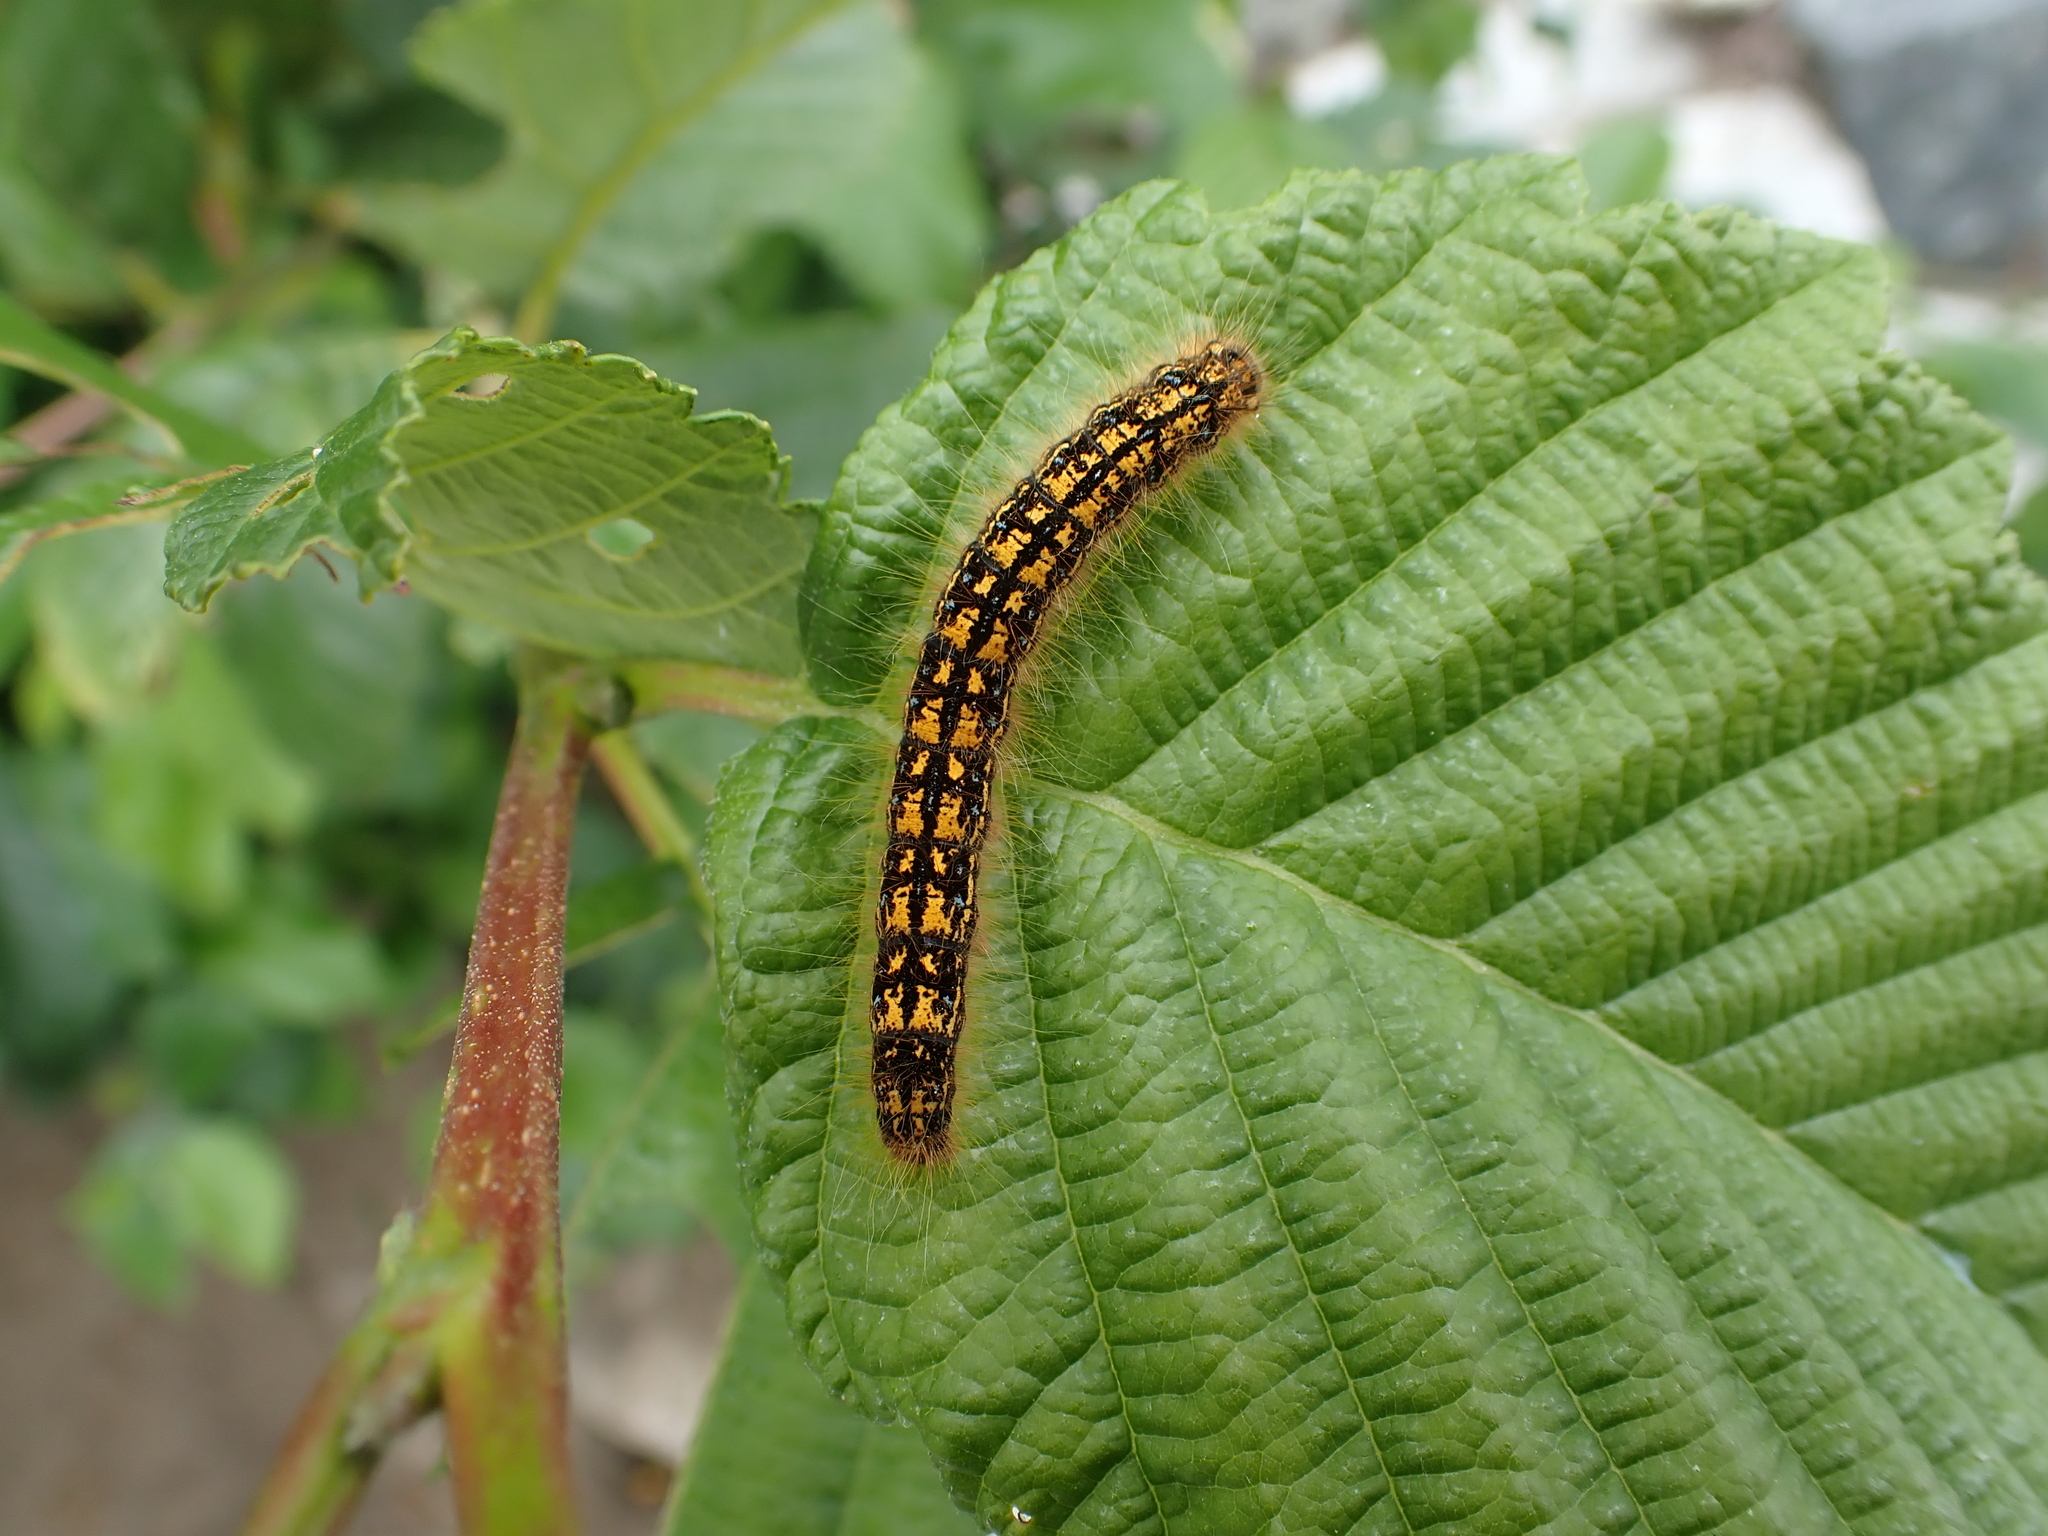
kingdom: Animalia
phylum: Arthropoda
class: Insecta
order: Lepidoptera
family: Lasiocampidae
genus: Malacosoma
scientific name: Malacosoma californica
